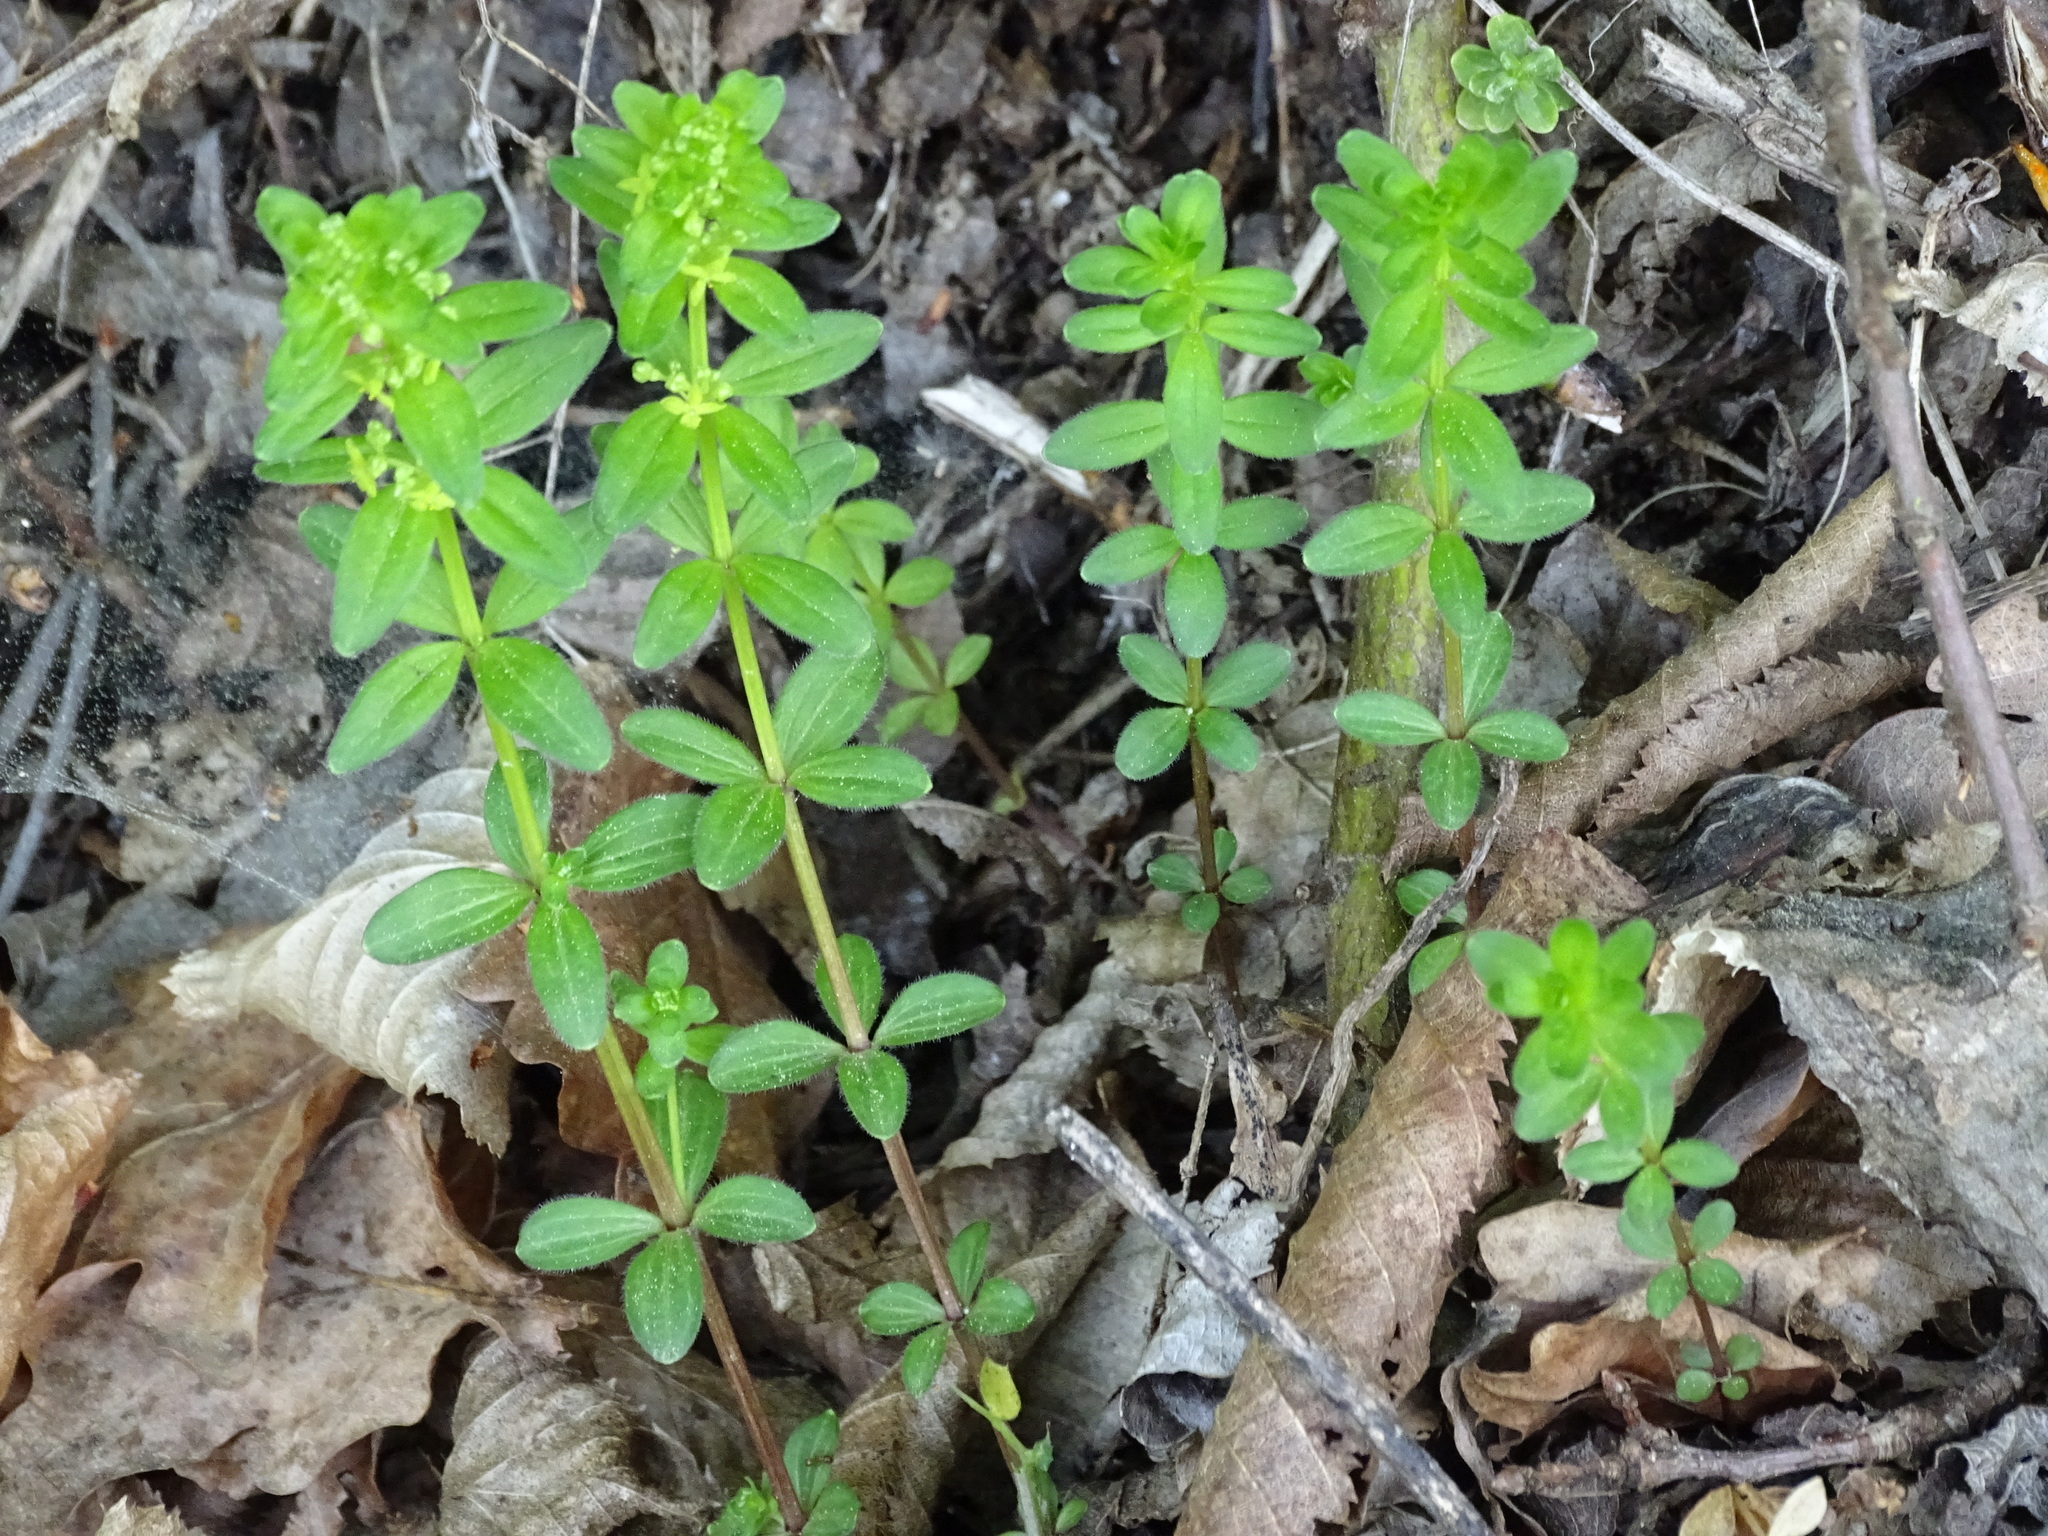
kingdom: Plantae
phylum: Tracheophyta
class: Magnoliopsida
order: Gentianales
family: Rubiaceae
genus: Cruciata
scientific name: Cruciata glabra
